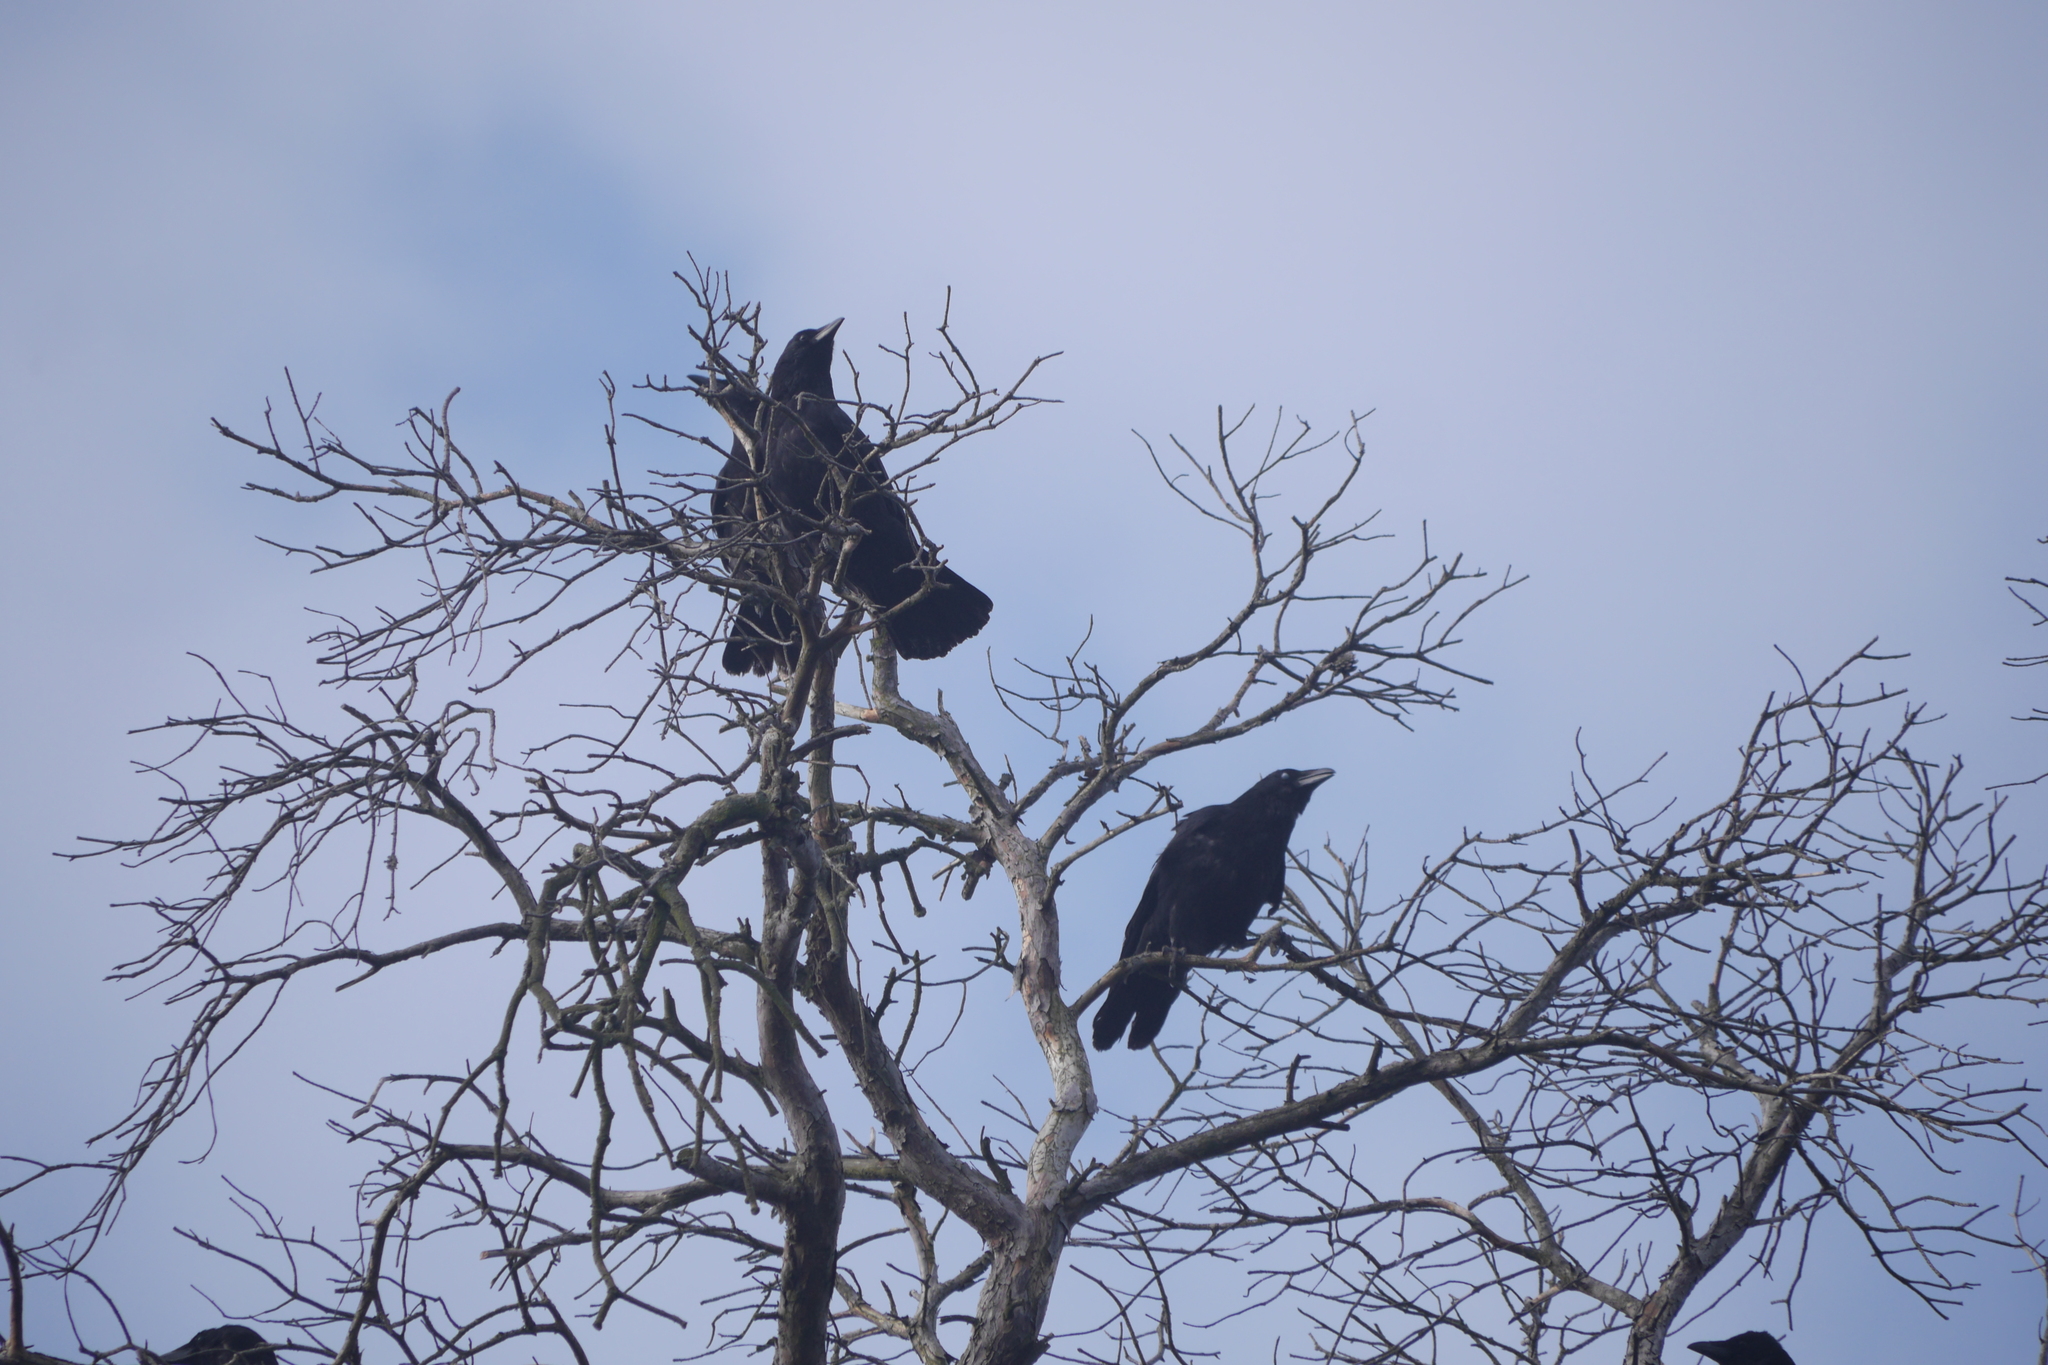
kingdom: Animalia
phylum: Chordata
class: Aves
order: Passeriformes
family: Corvidae
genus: Corvus
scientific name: Corvus corone
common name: Carrion crow
